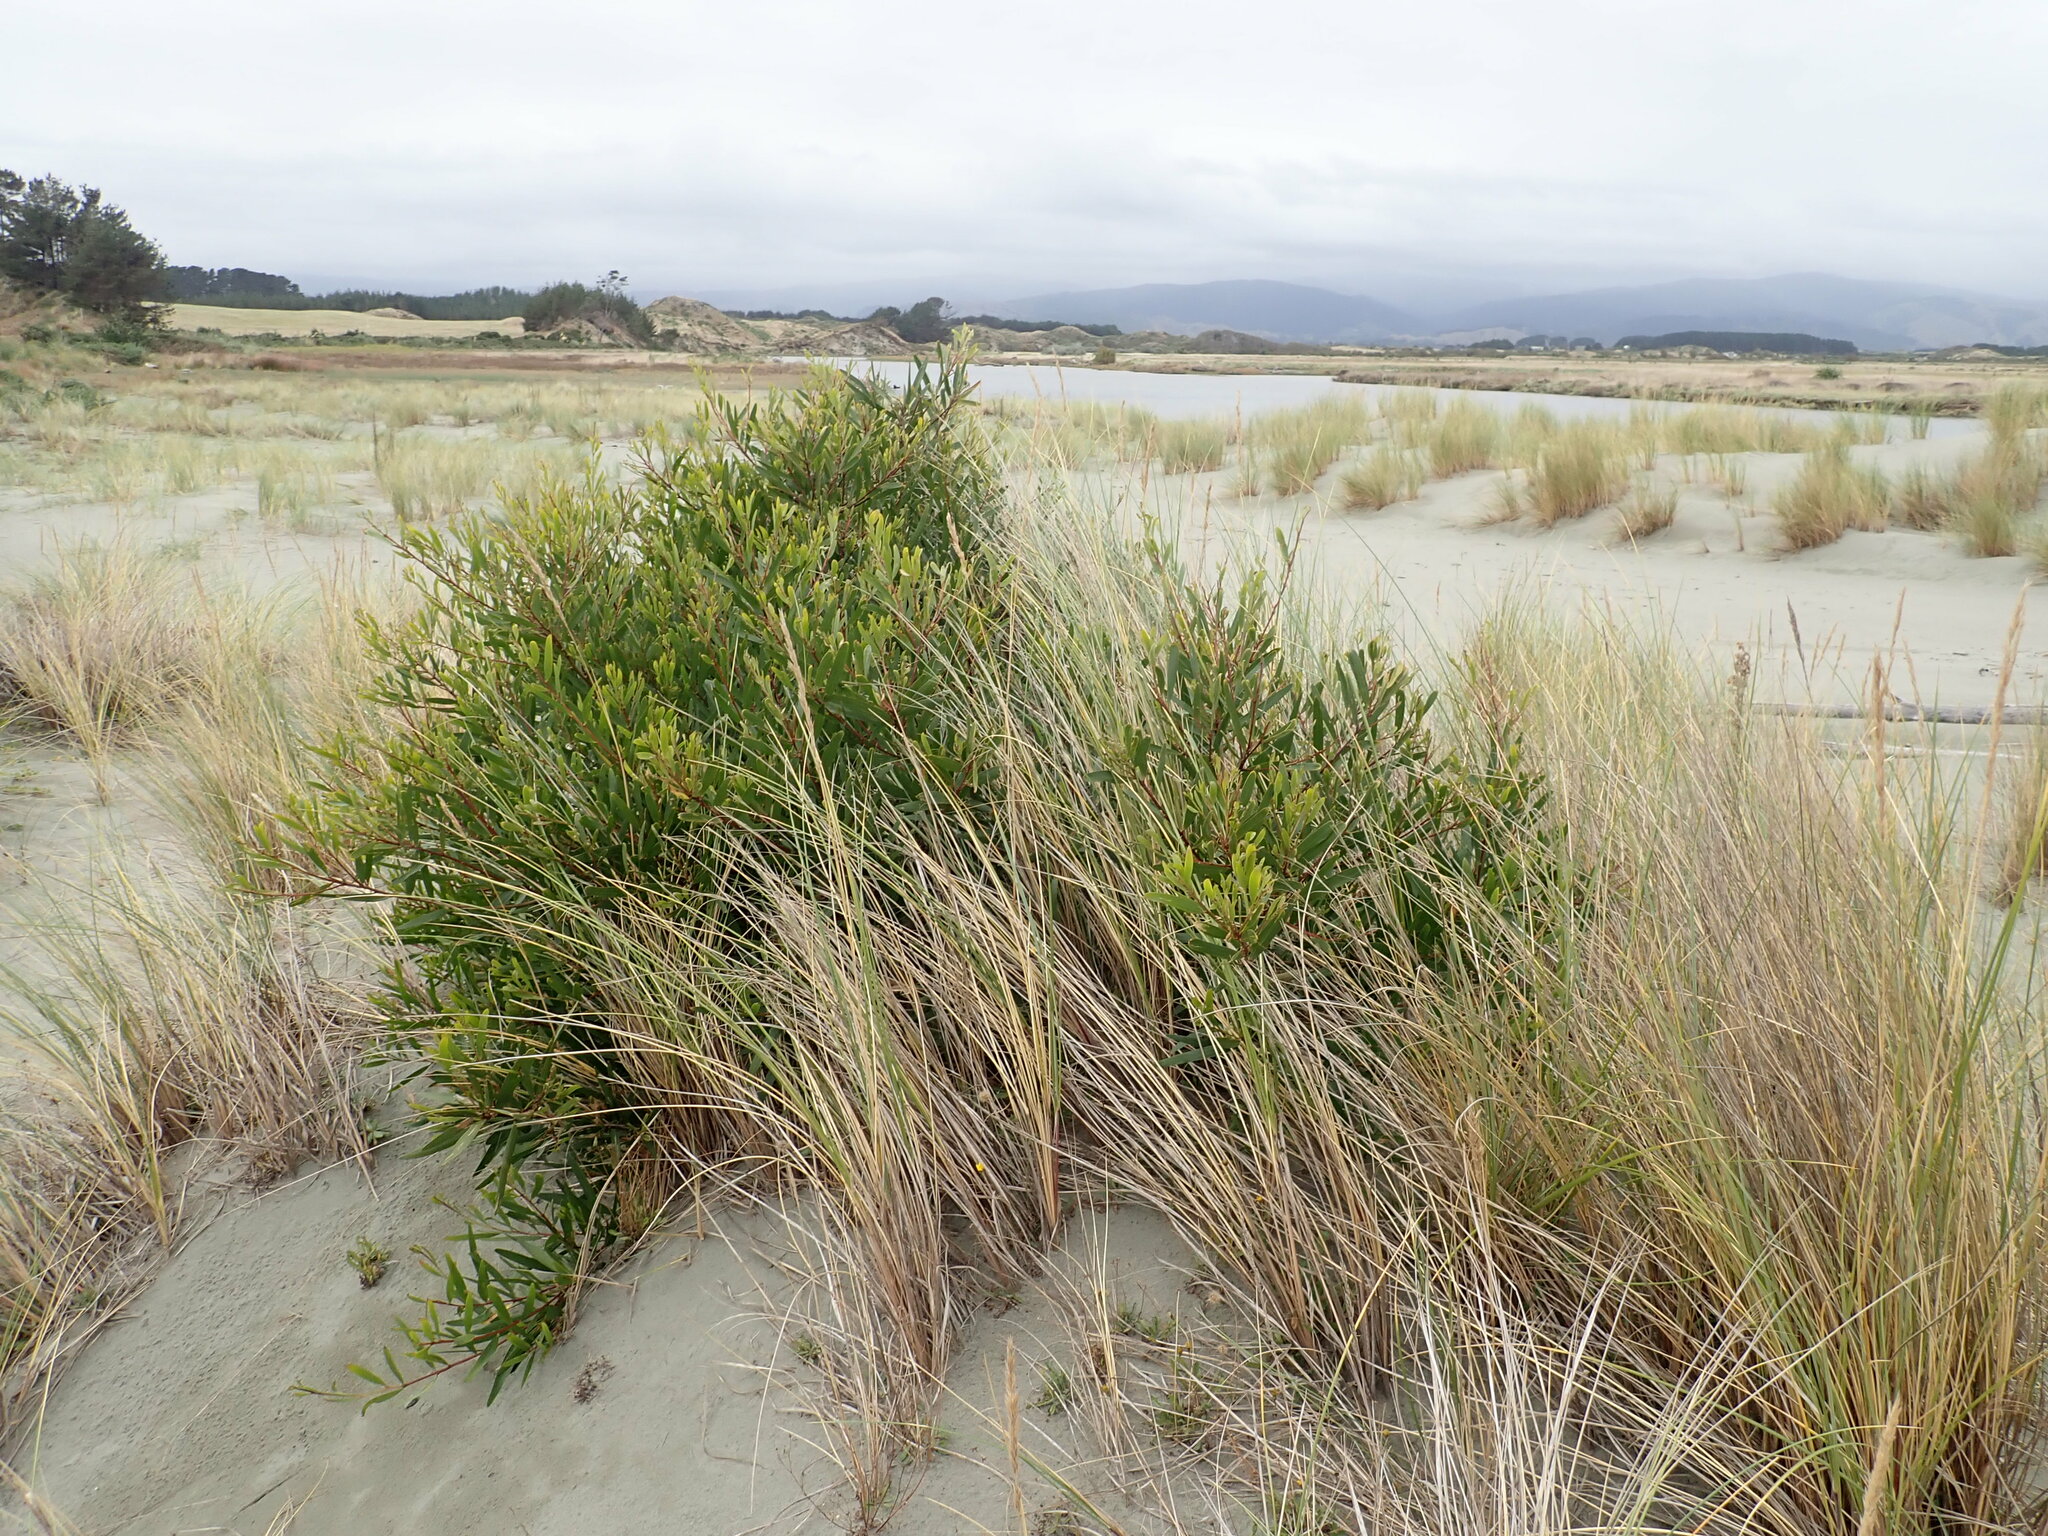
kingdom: Plantae
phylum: Tracheophyta
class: Magnoliopsida
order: Fabales
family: Fabaceae
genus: Acacia
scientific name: Acacia longifolia
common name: Sydney golden wattle
